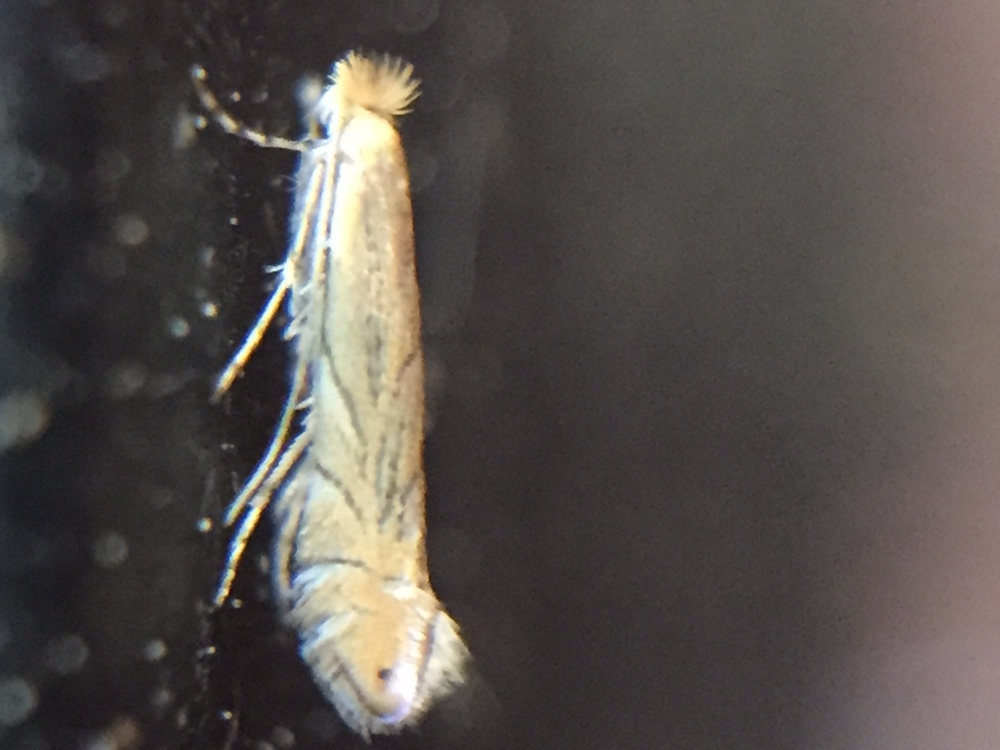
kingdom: Animalia
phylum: Arthropoda
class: Insecta
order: Lepidoptera
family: Gracillariidae
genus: Phyllonorycter
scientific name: Phyllonorycter messaniella
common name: Garden midget
